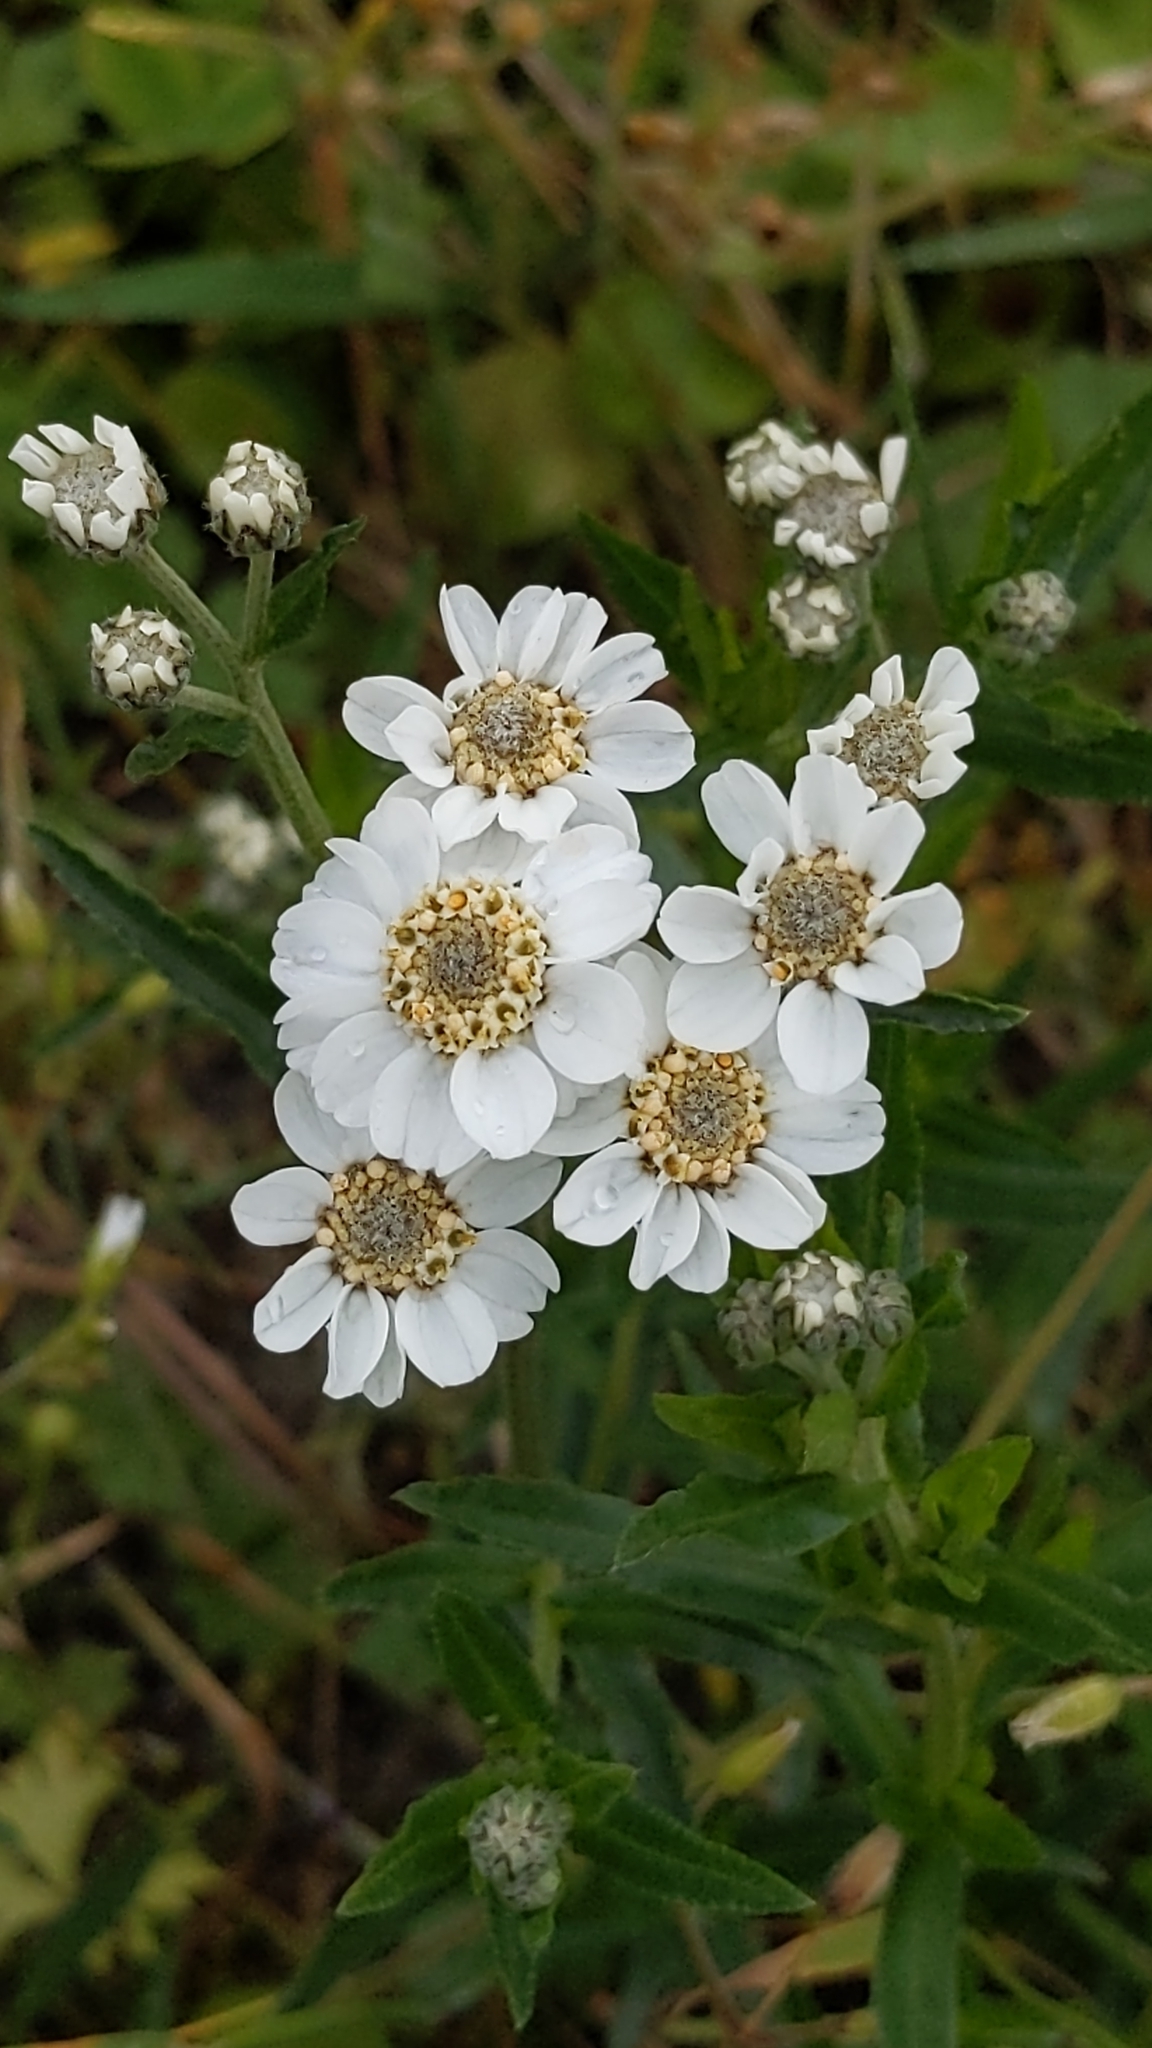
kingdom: Plantae
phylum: Tracheophyta
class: Magnoliopsida
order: Asterales
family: Asteraceae
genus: Achillea
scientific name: Achillea ptarmica
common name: Sneezeweed
